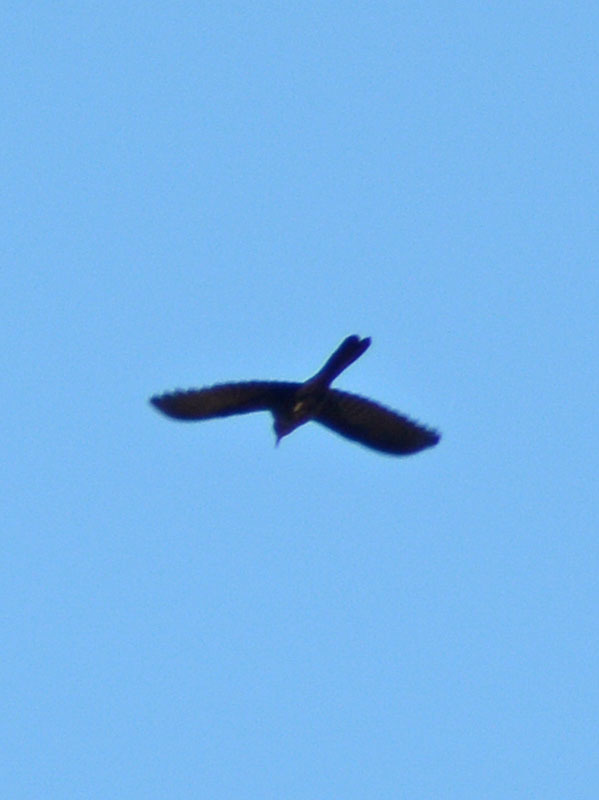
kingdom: Animalia
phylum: Chordata
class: Aves
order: Passeriformes
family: Icteridae
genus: Quiscalus
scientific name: Quiscalus mexicanus
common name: Great-tailed grackle
